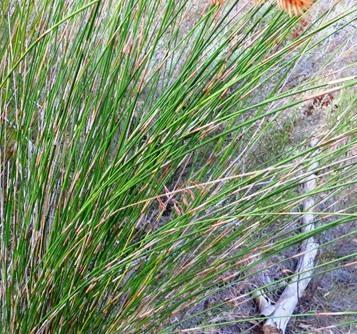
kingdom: Plantae
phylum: Tracheophyta
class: Liliopsida
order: Poales
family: Restionaceae
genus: Thamnochortus
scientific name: Thamnochortus insignis
